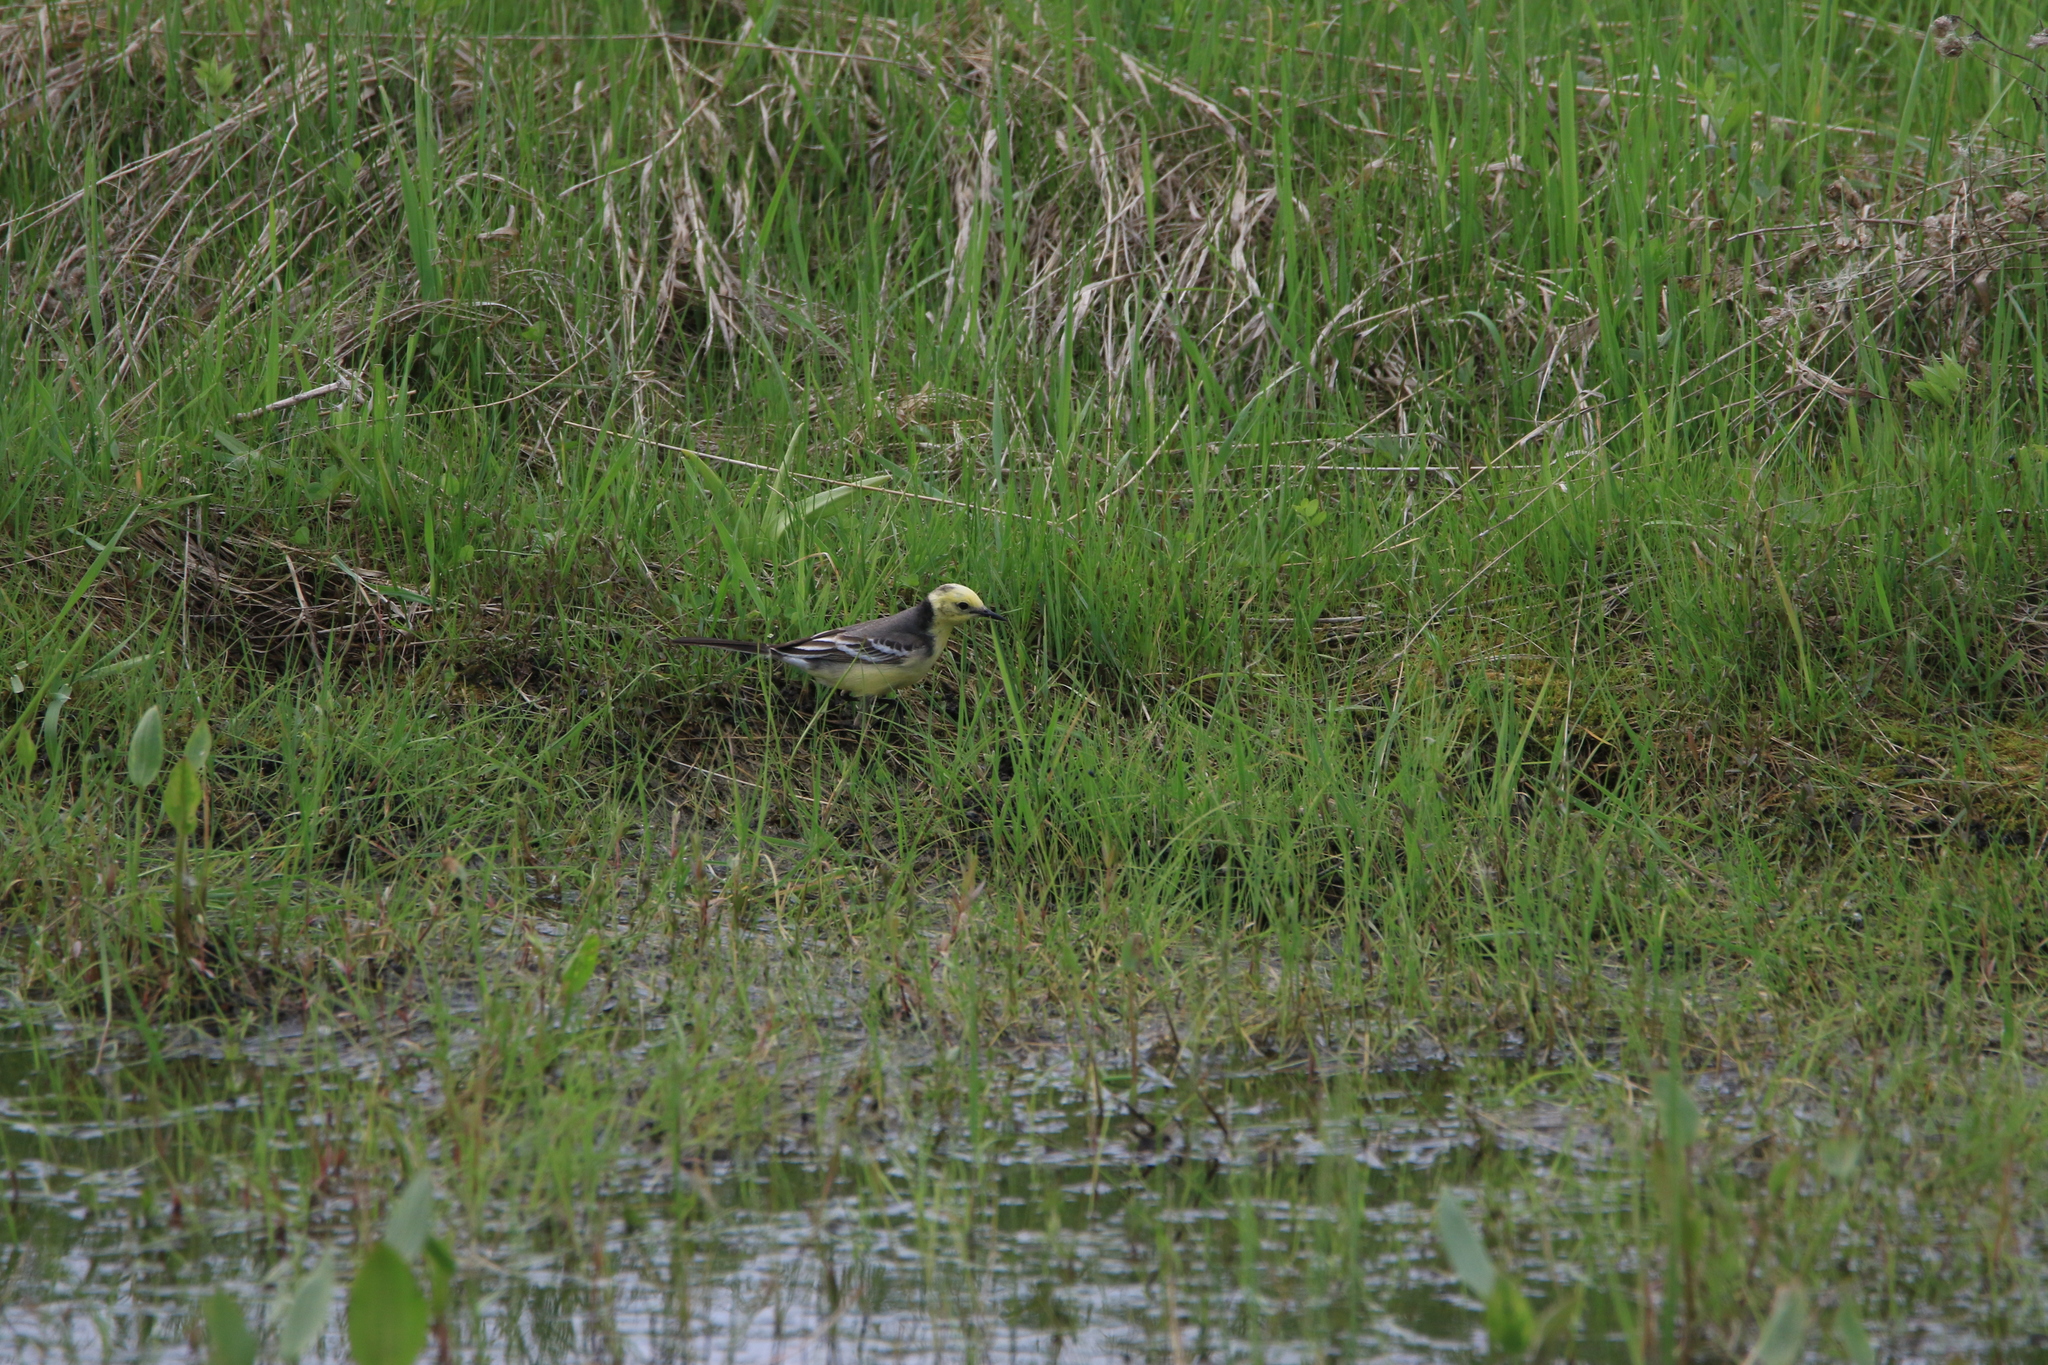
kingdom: Animalia
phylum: Chordata
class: Aves
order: Passeriformes
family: Motacillidae
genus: Motacilla
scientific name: Motacilla citreola
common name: Citrine wagtail
